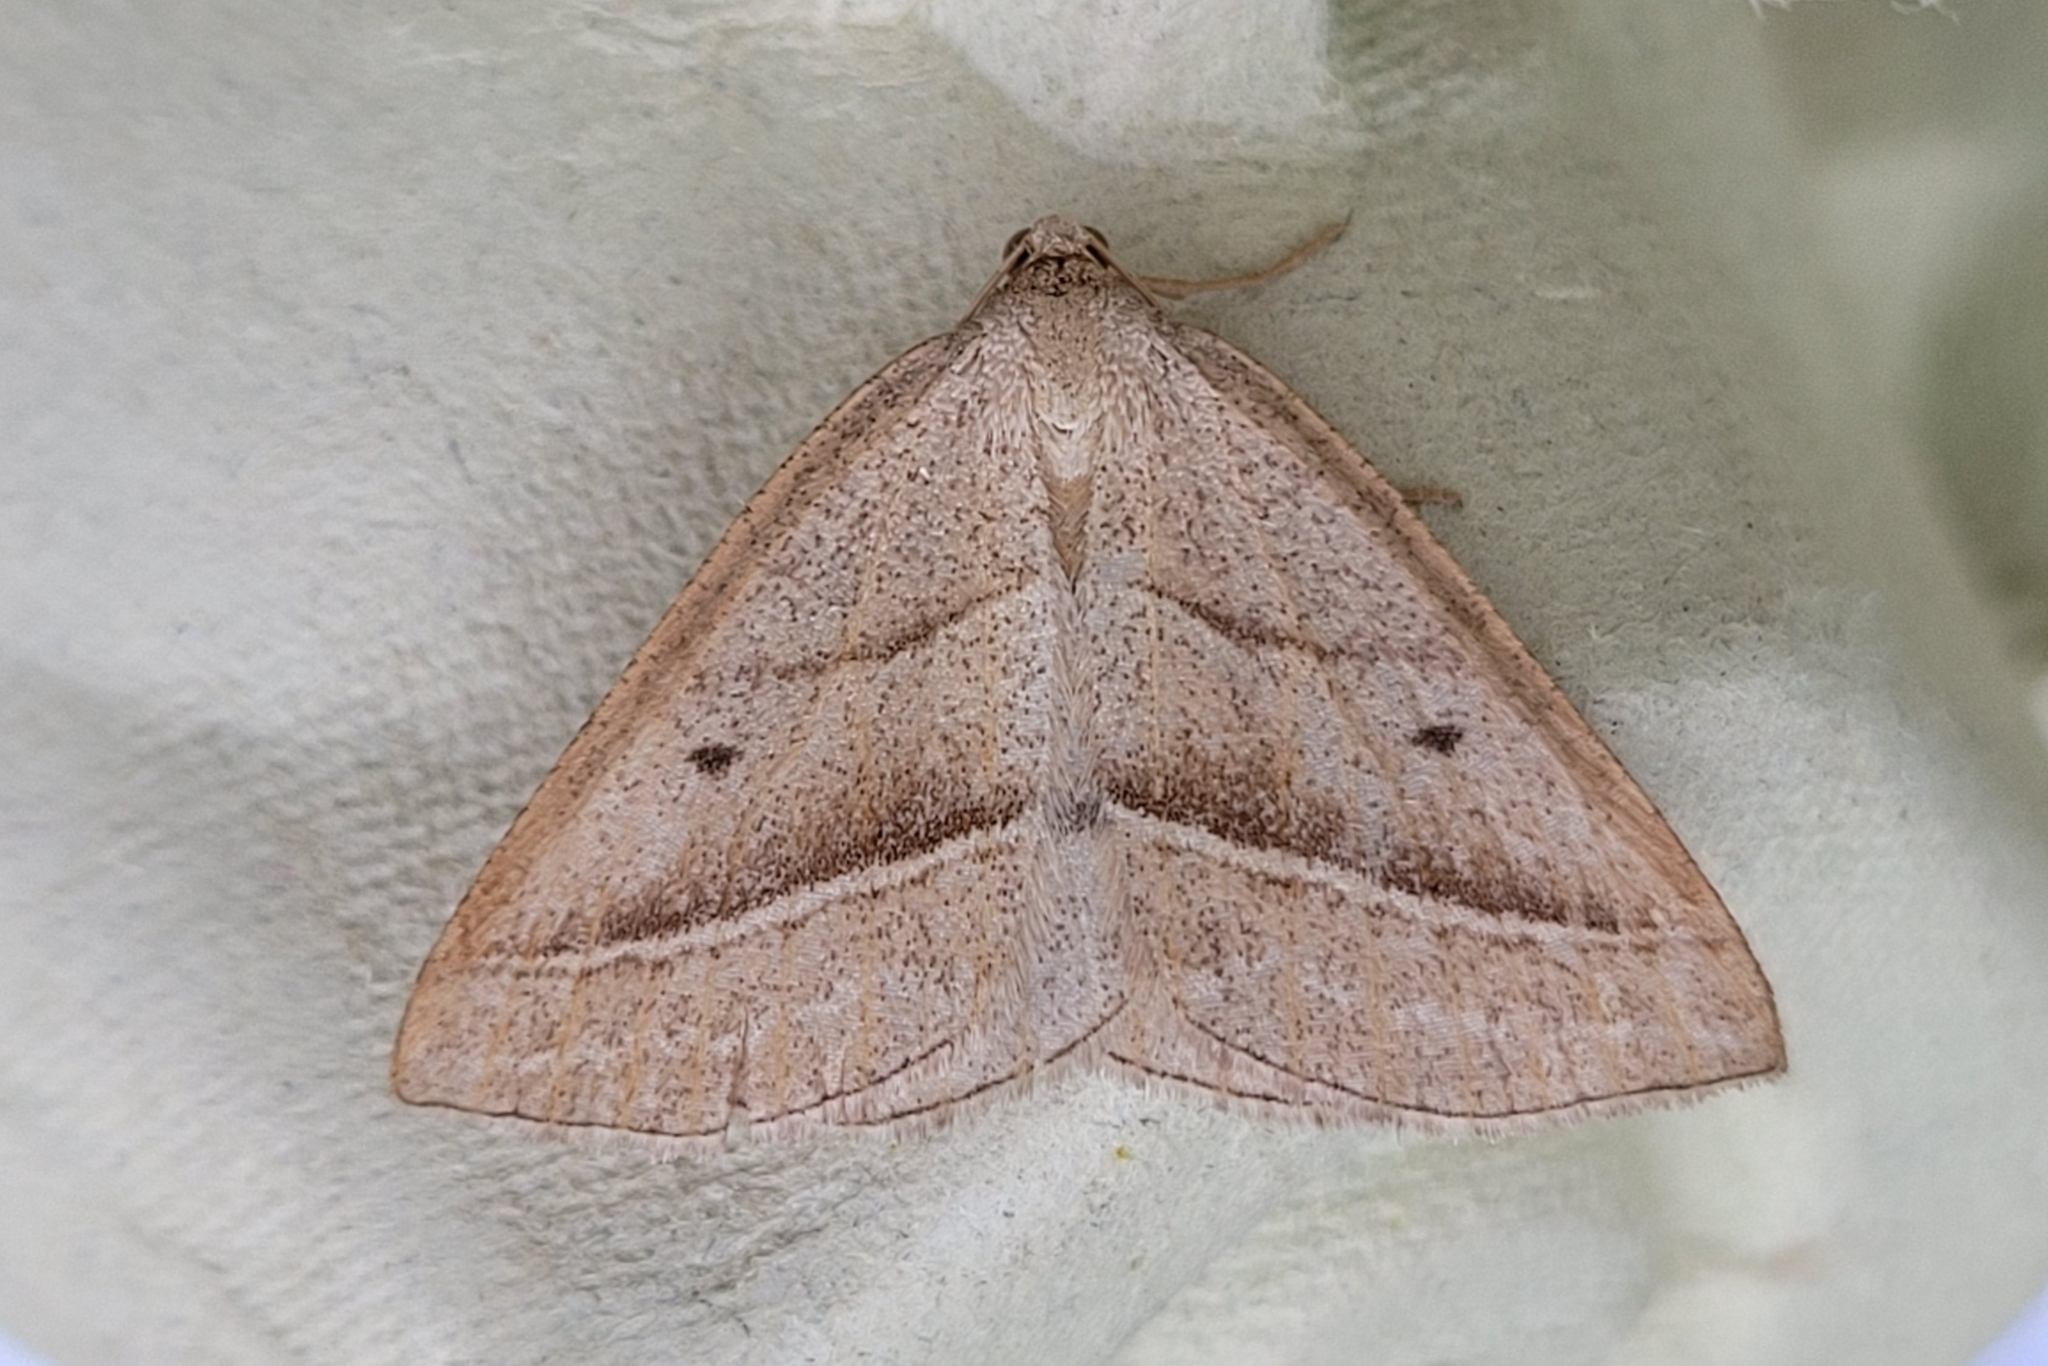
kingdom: Animalia
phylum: Arthropoda
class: Insecta
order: Lepidoptera
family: Pterophoridae
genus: Pterophorus
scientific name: Pterophorus Petrophora chlorosata
